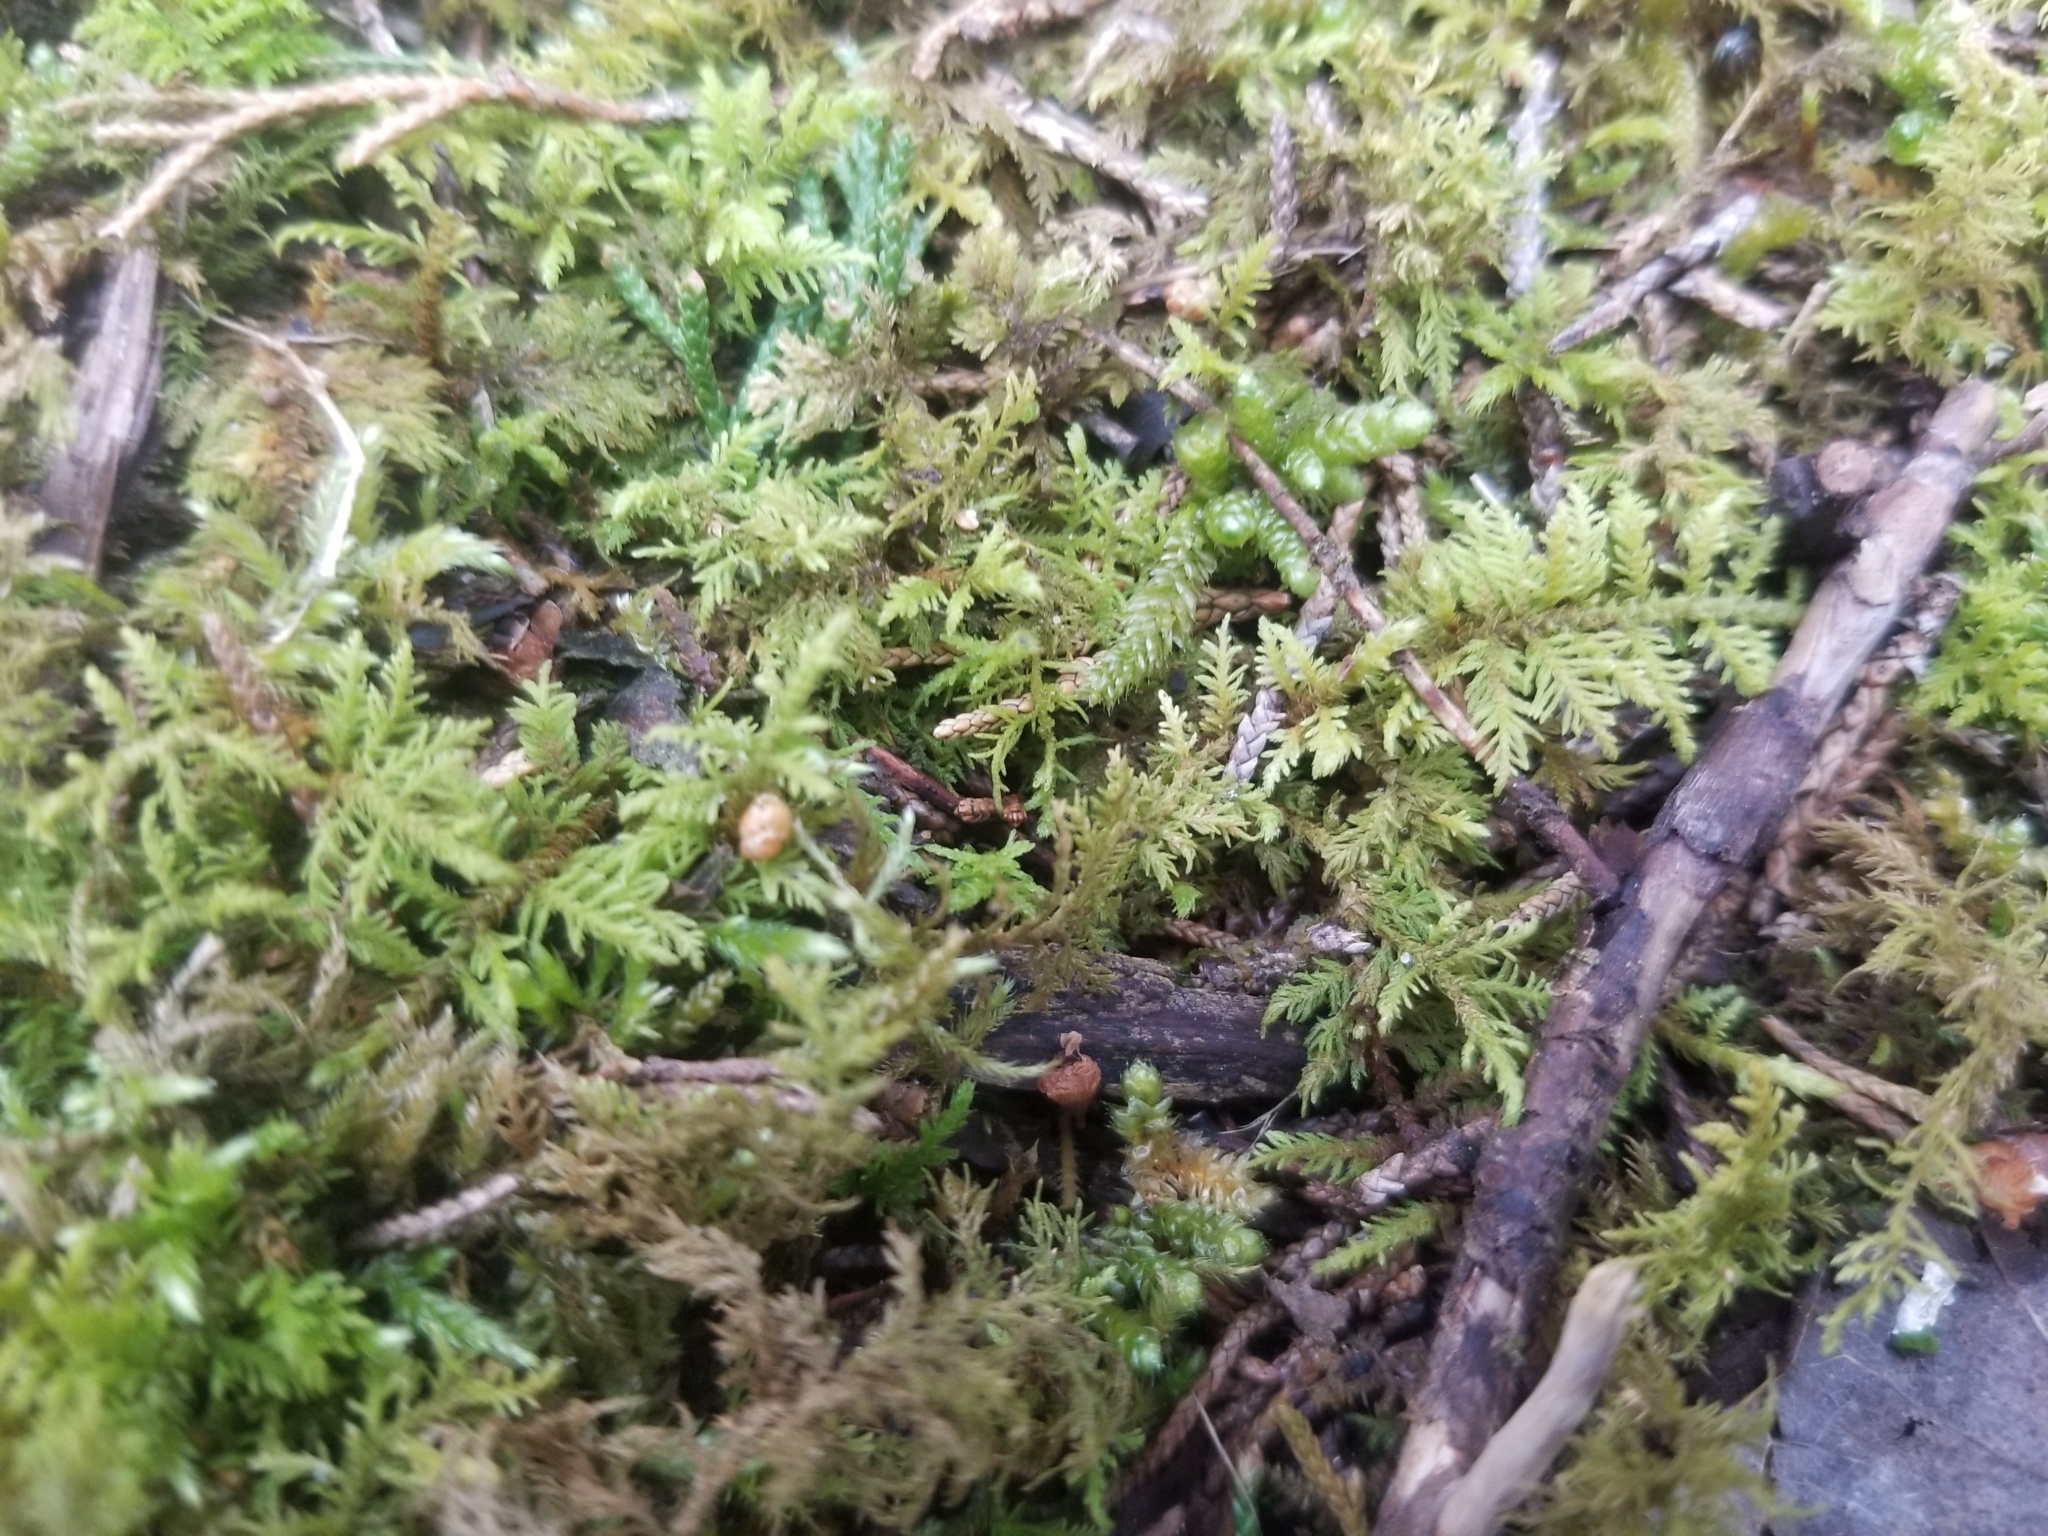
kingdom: Plantae
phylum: Bryophyta
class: Bryopsida
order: Hypnales
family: Thuidiaceae
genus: Thuidium
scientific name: Thuidium delicatulum
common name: Delicate fern moss
